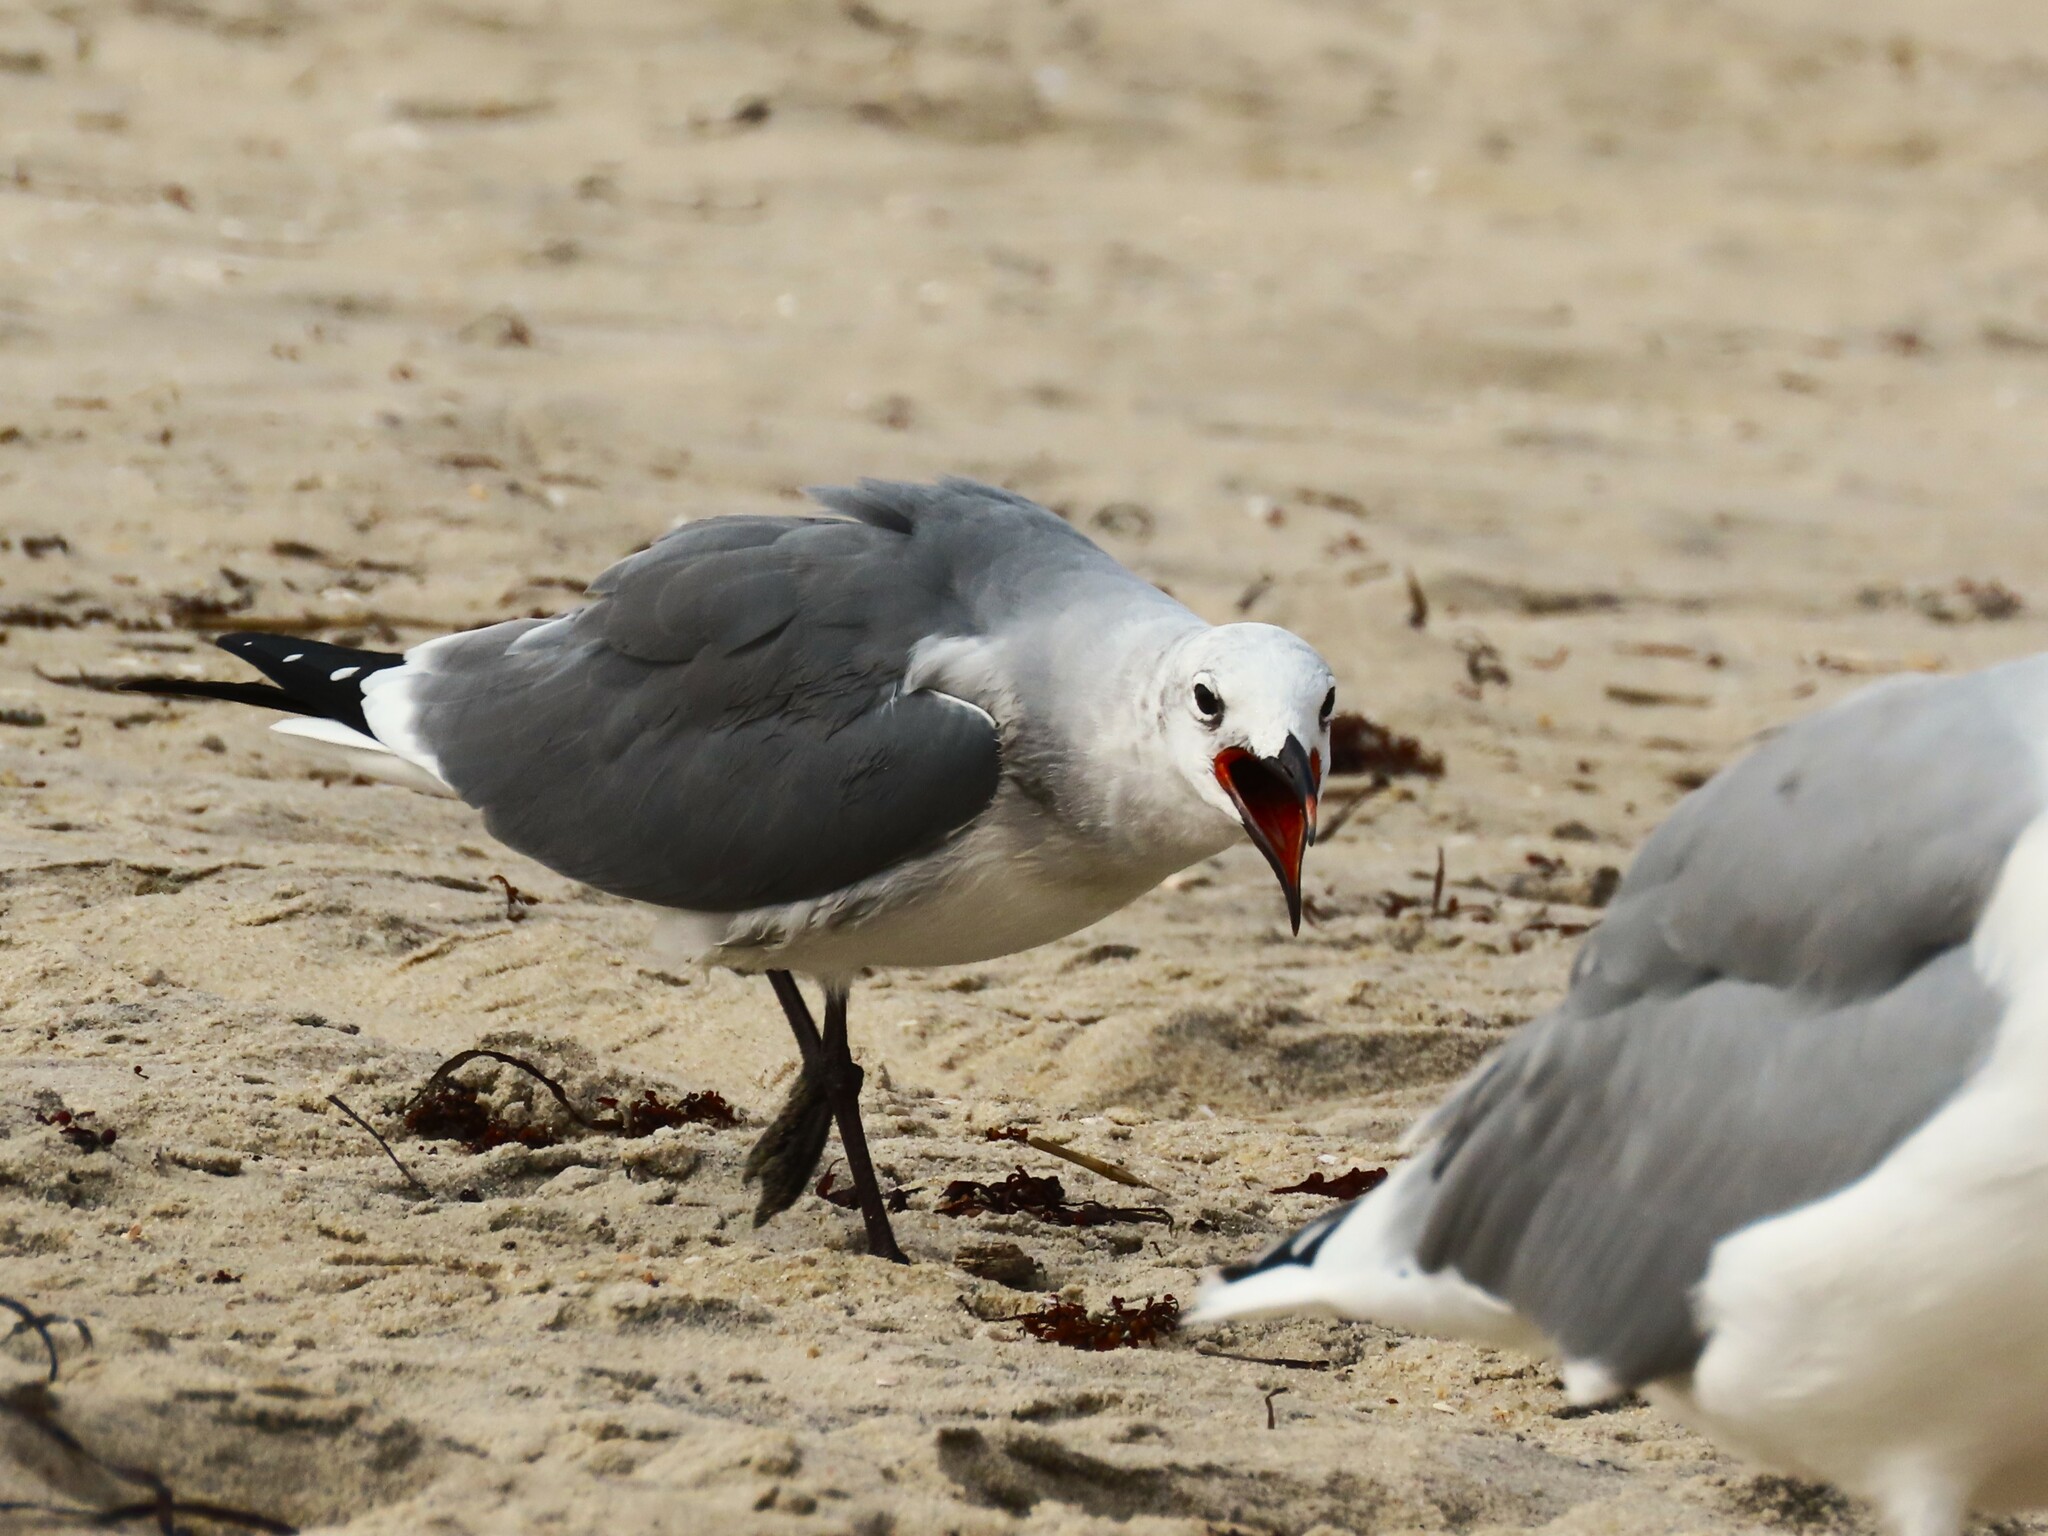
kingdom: Animalia
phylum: Chordata
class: Aves
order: Charadriiformes
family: Laridae
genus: Leucophaeus
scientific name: Leucophaeus atricilla
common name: Laughing gull
